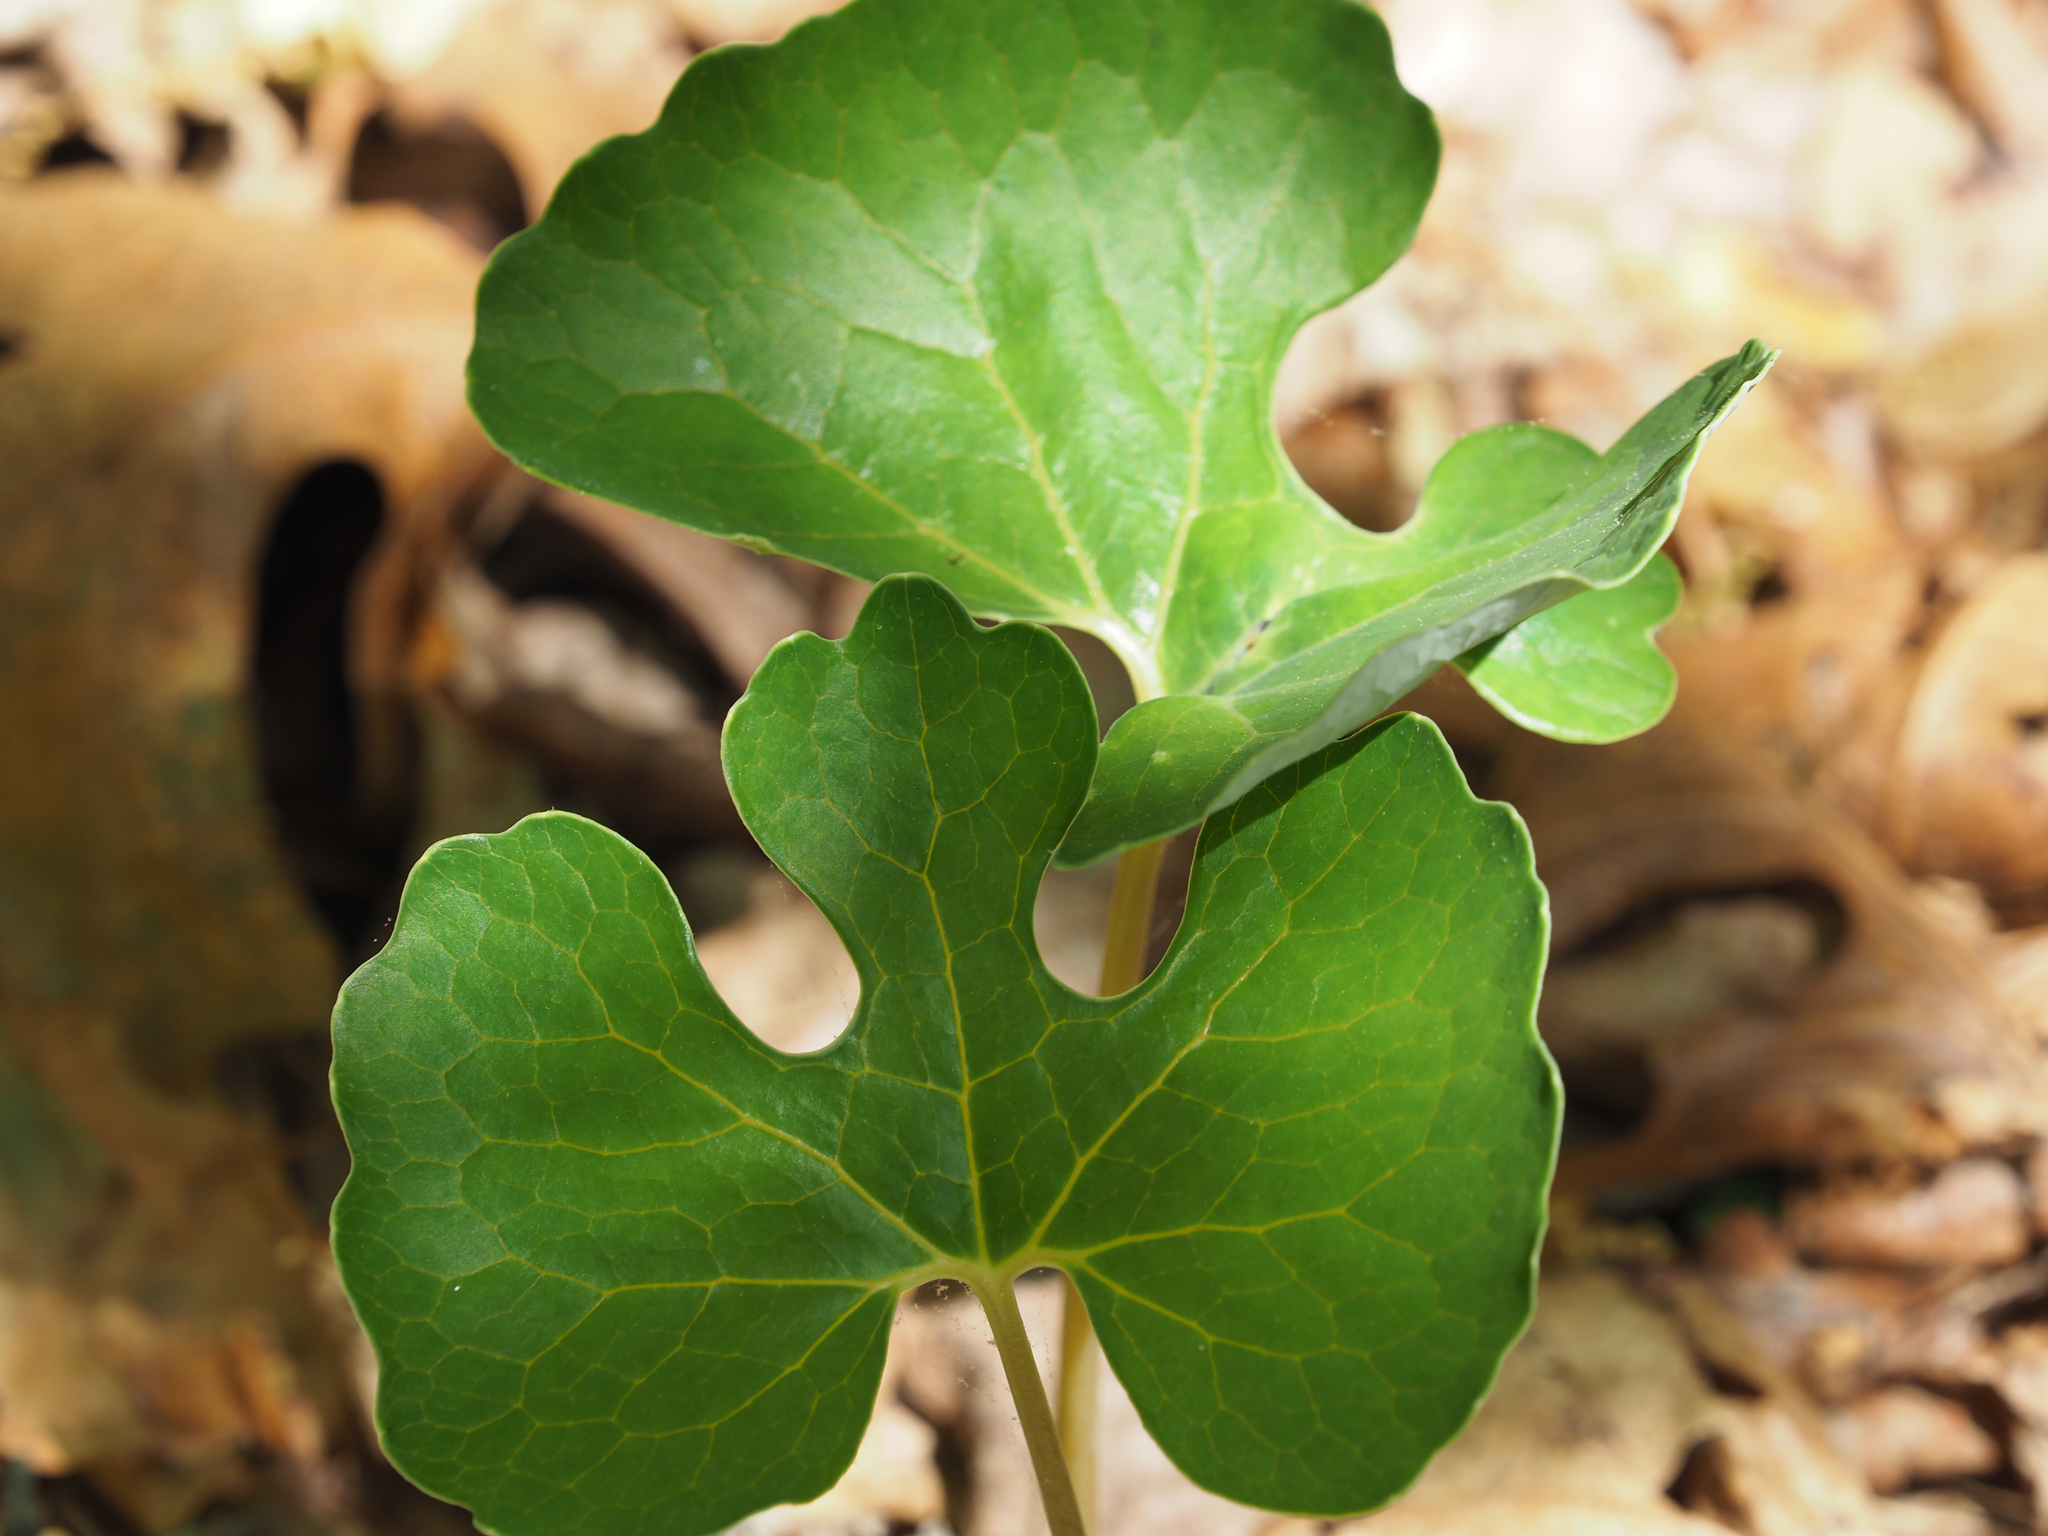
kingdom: Plantae
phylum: Tracheophyta
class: Magnoliopsida
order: Ranunculales
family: Papaveraceae
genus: Sanguinaria
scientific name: Sanguinaria canadensis
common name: Bloodroot
